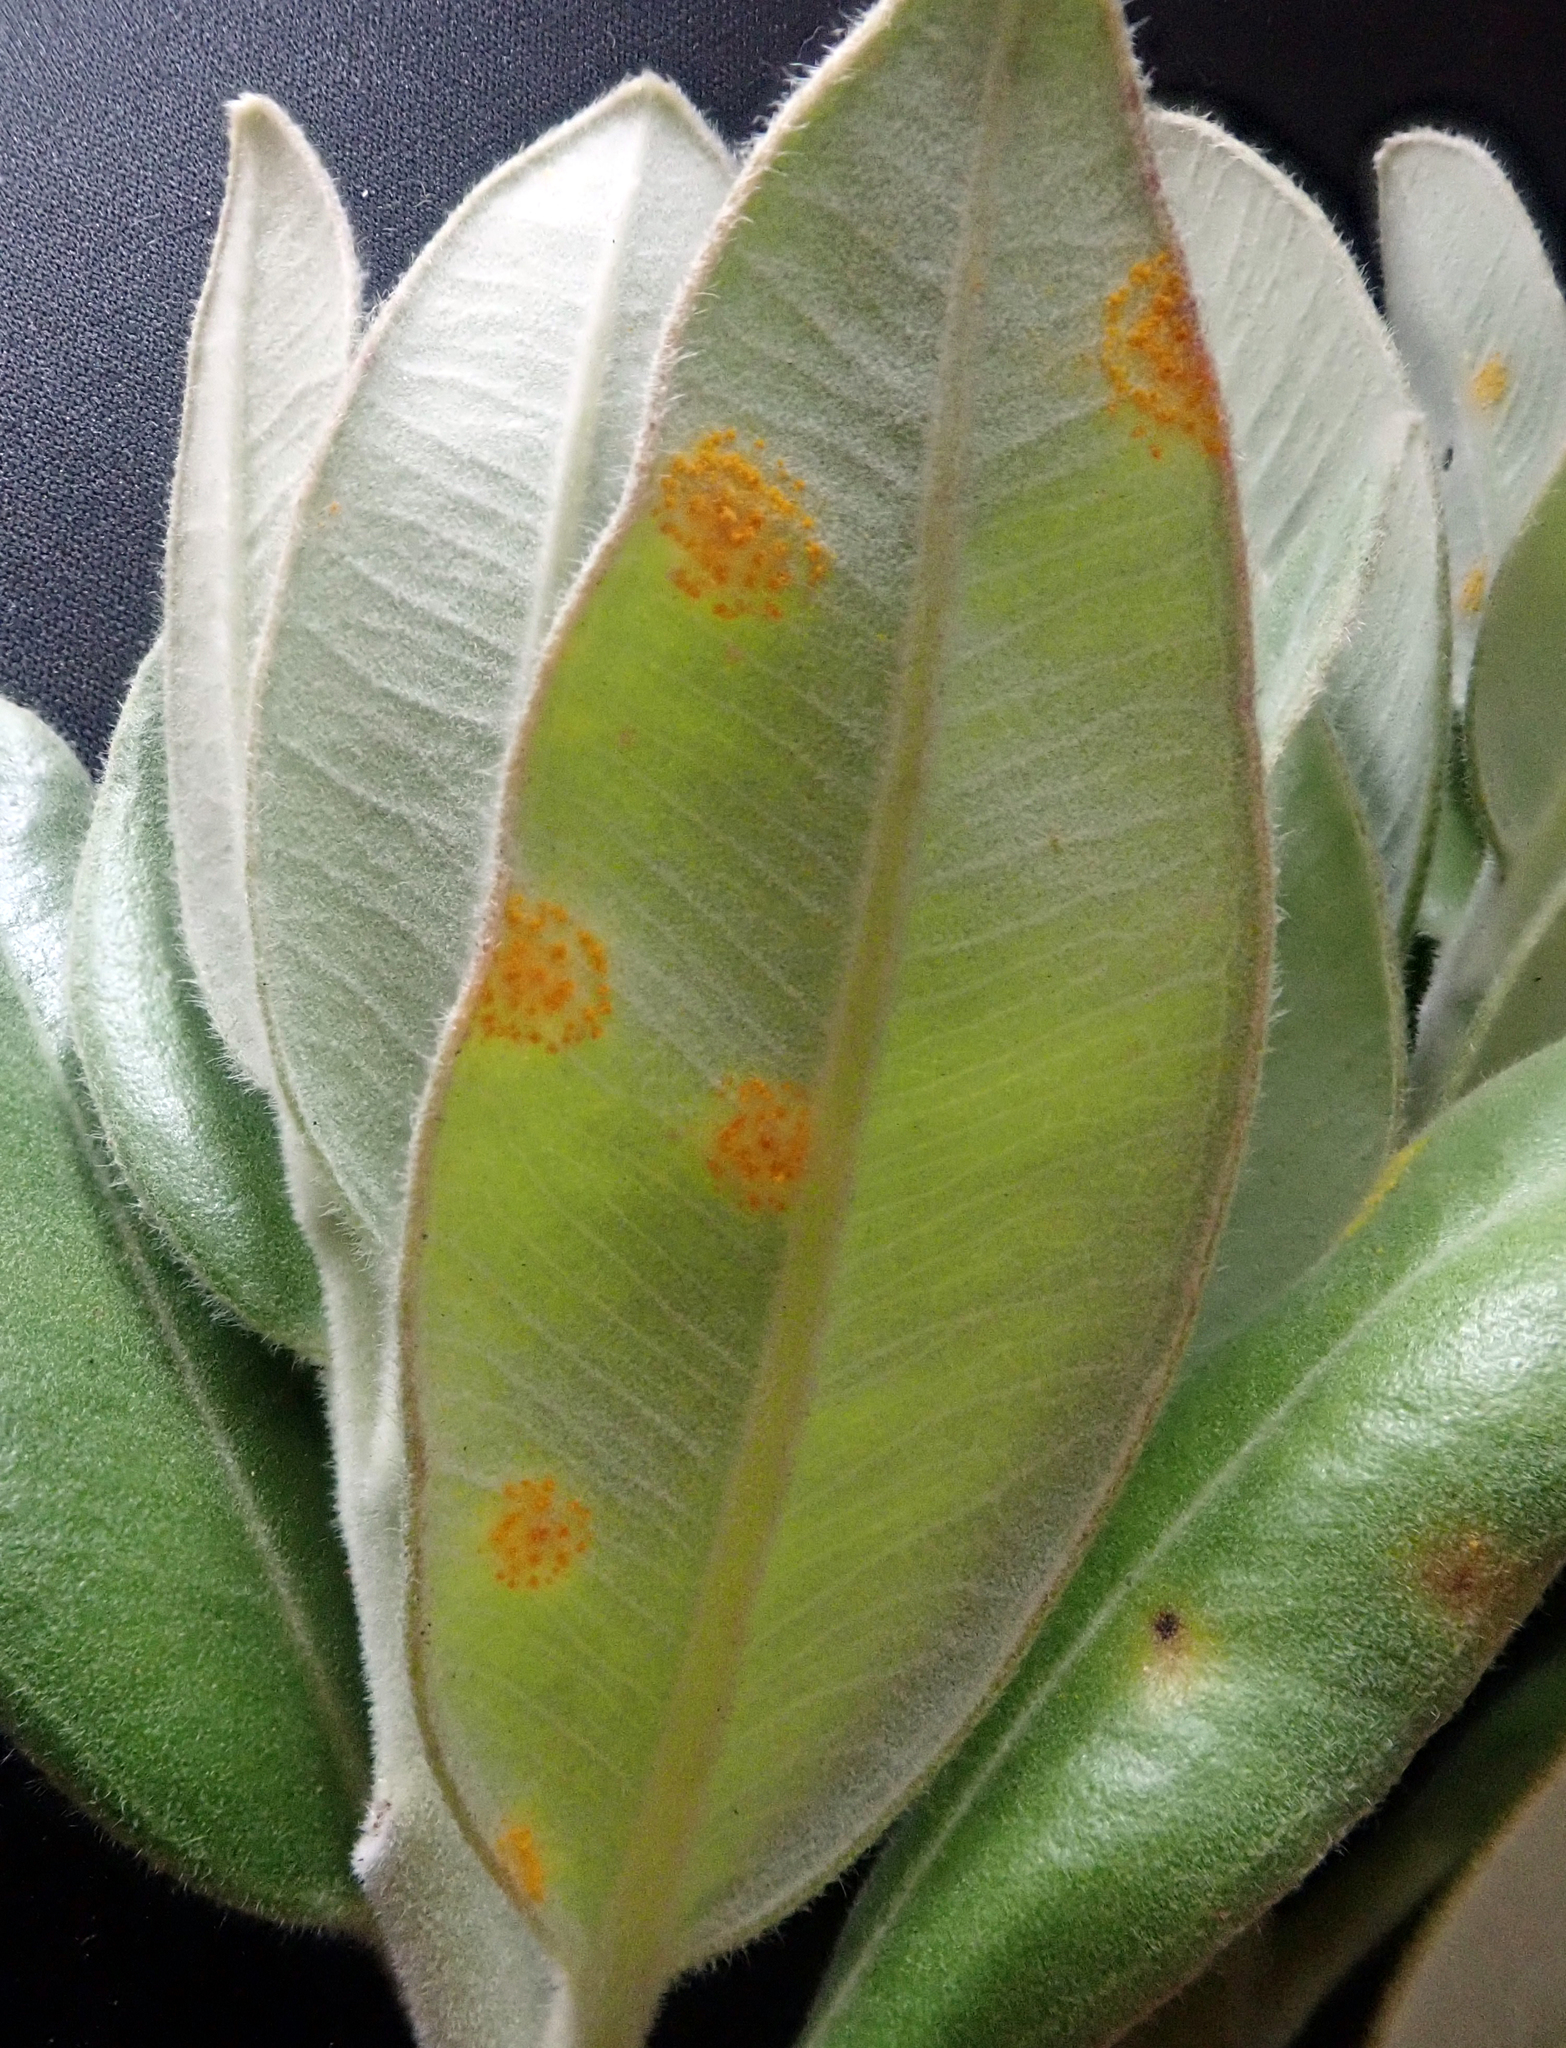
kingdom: Fungi
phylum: Basidiomycota
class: Pucciniomycetes
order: Pucciniales
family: Sphaerophragmiaceae
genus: Austropuccinia
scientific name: Austropuccinia psidii
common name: Myrtle rust
